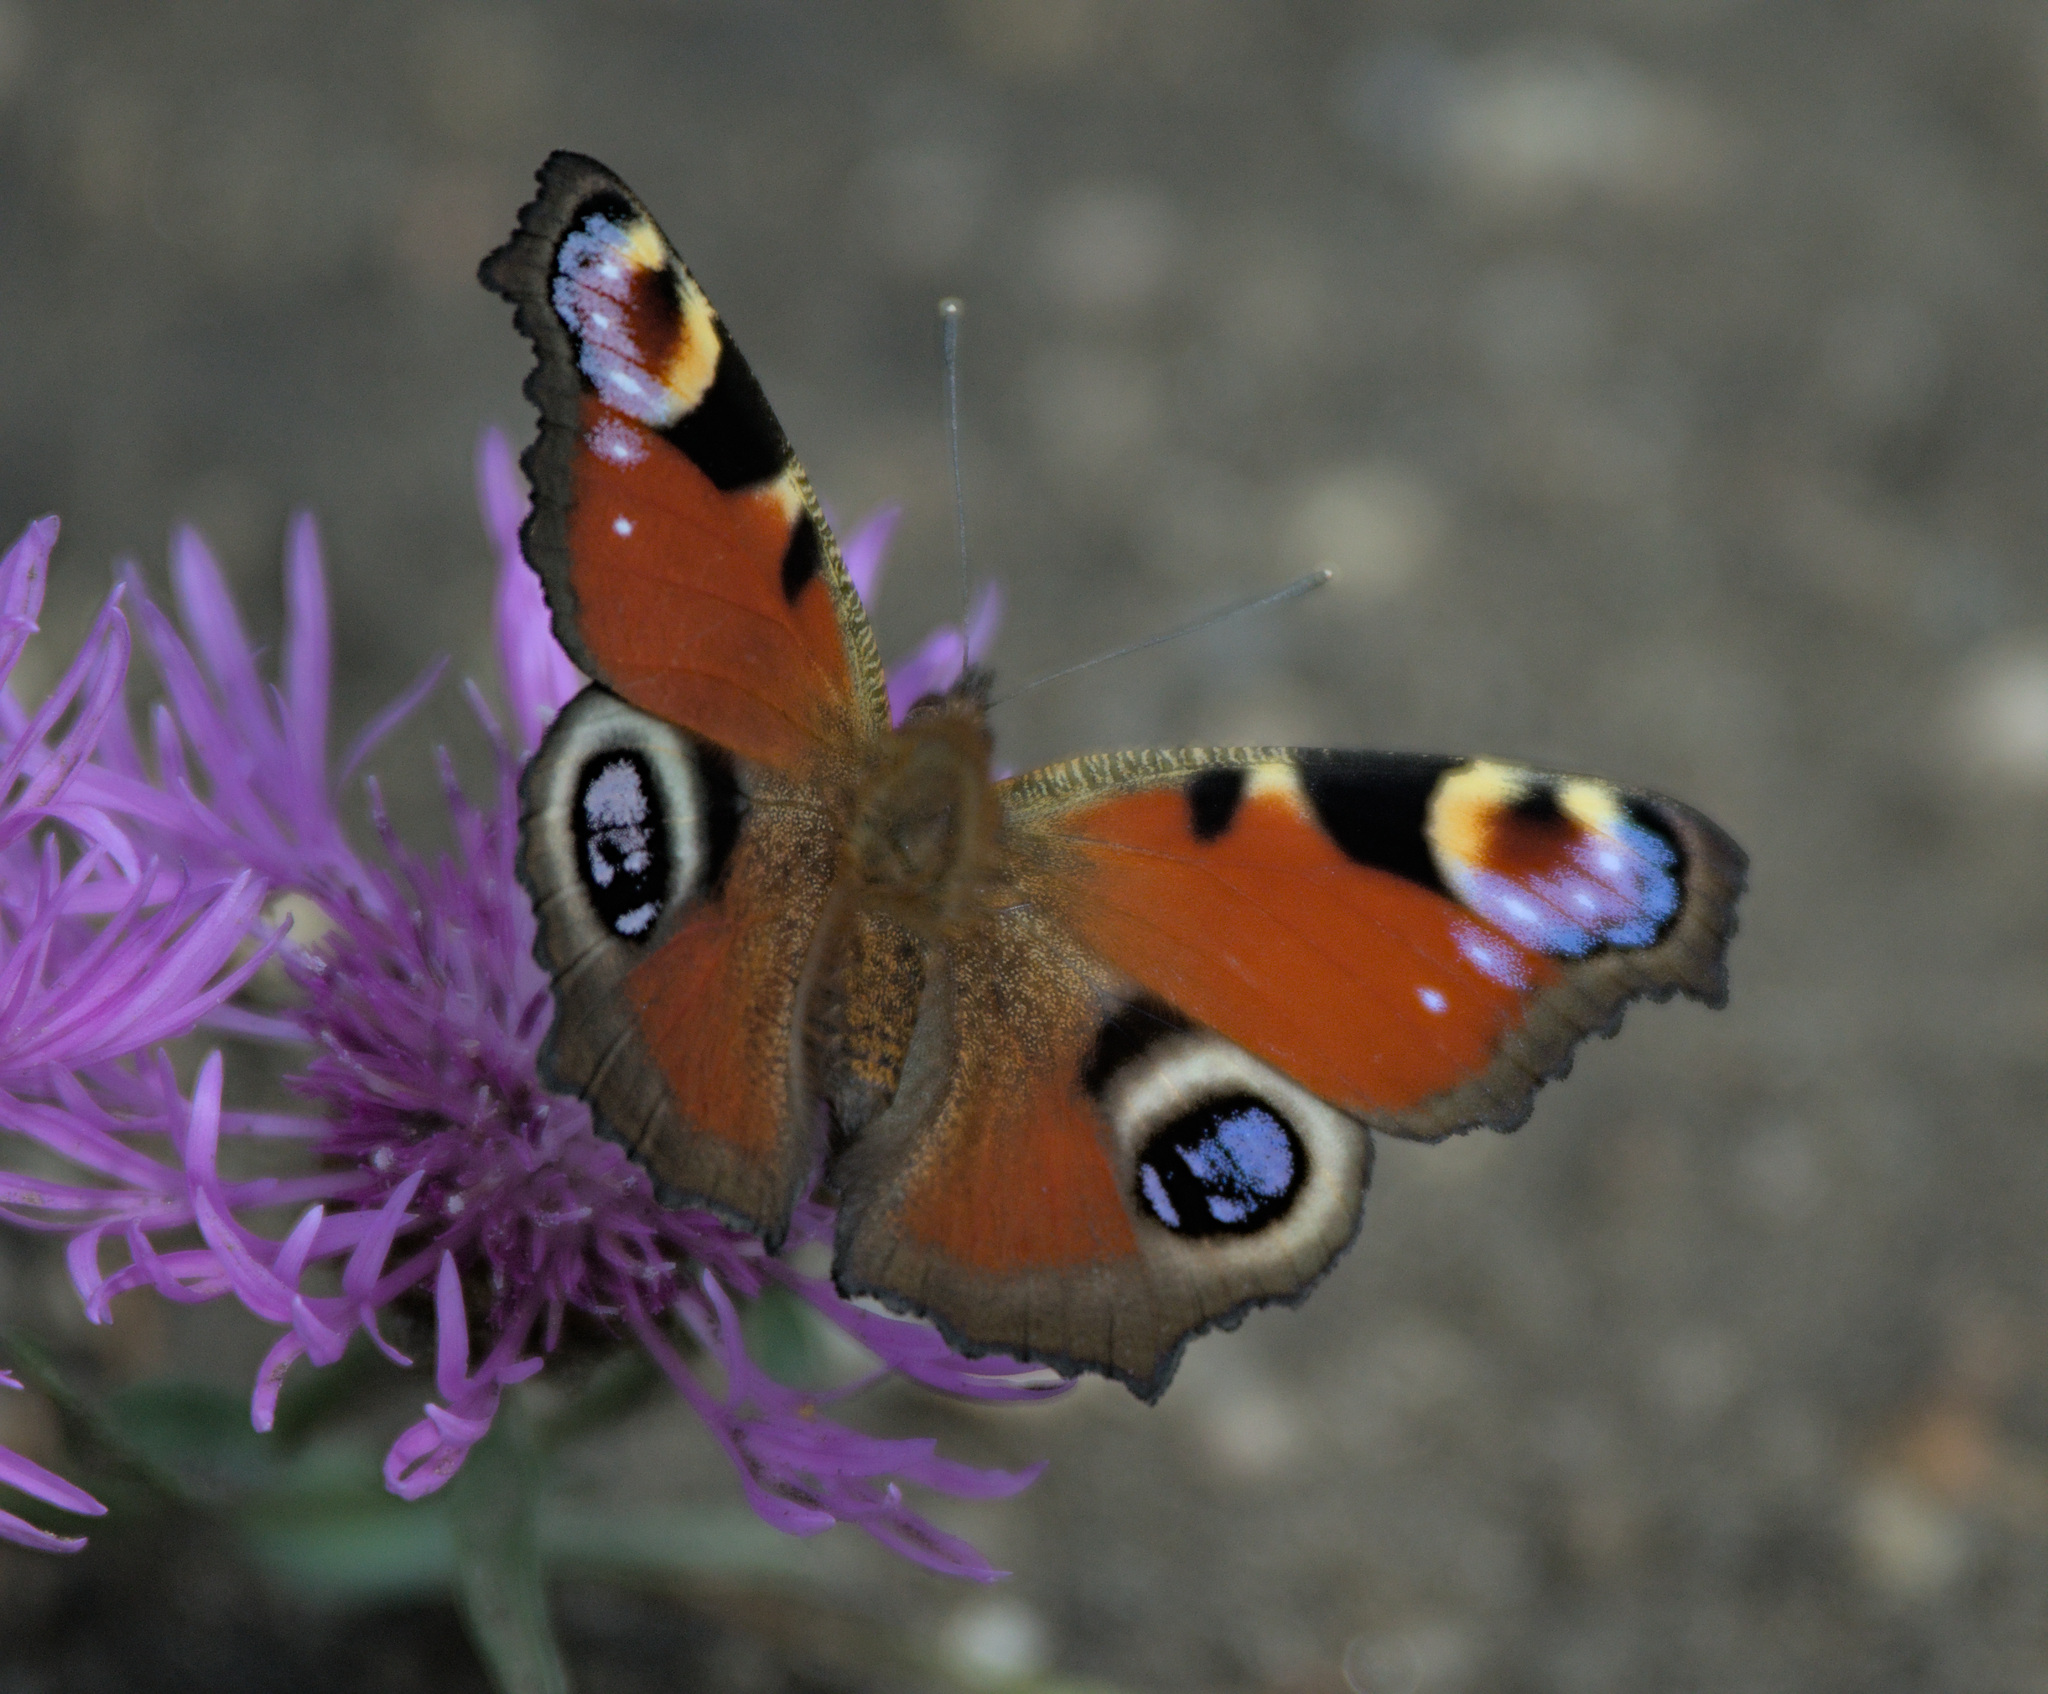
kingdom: Animalia
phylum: Arthropoda
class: Insecta
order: Lepidoptera
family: Nymphalidae
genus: Aglais
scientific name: Aglais io
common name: Peacock
